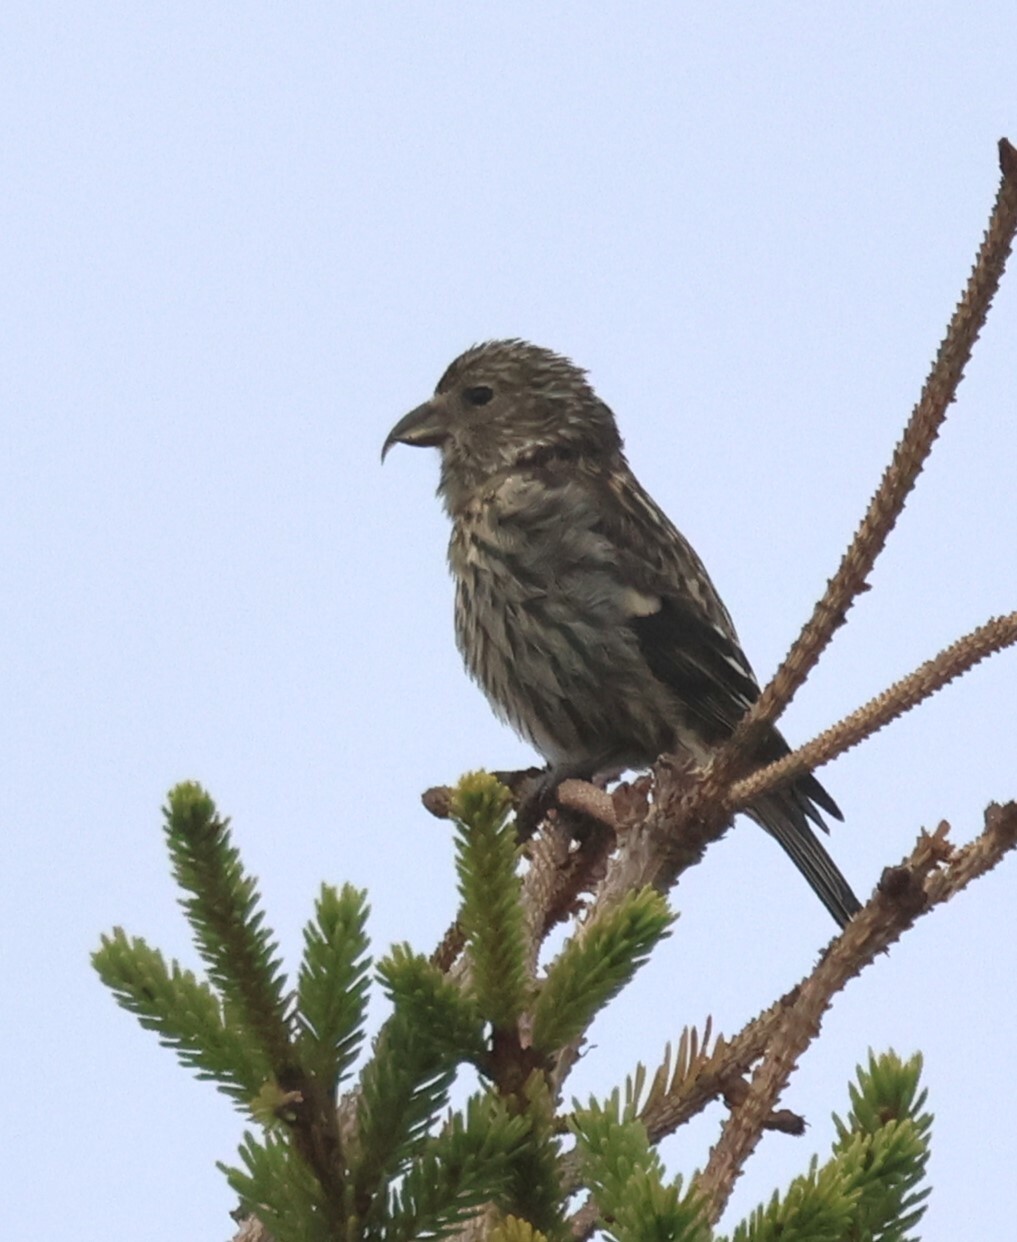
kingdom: Animalia
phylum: Chordata
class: Aves
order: Passeriformes
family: Fringillidae
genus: Loxia
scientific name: Loxia leucoptera
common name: Two-barred crossbill
